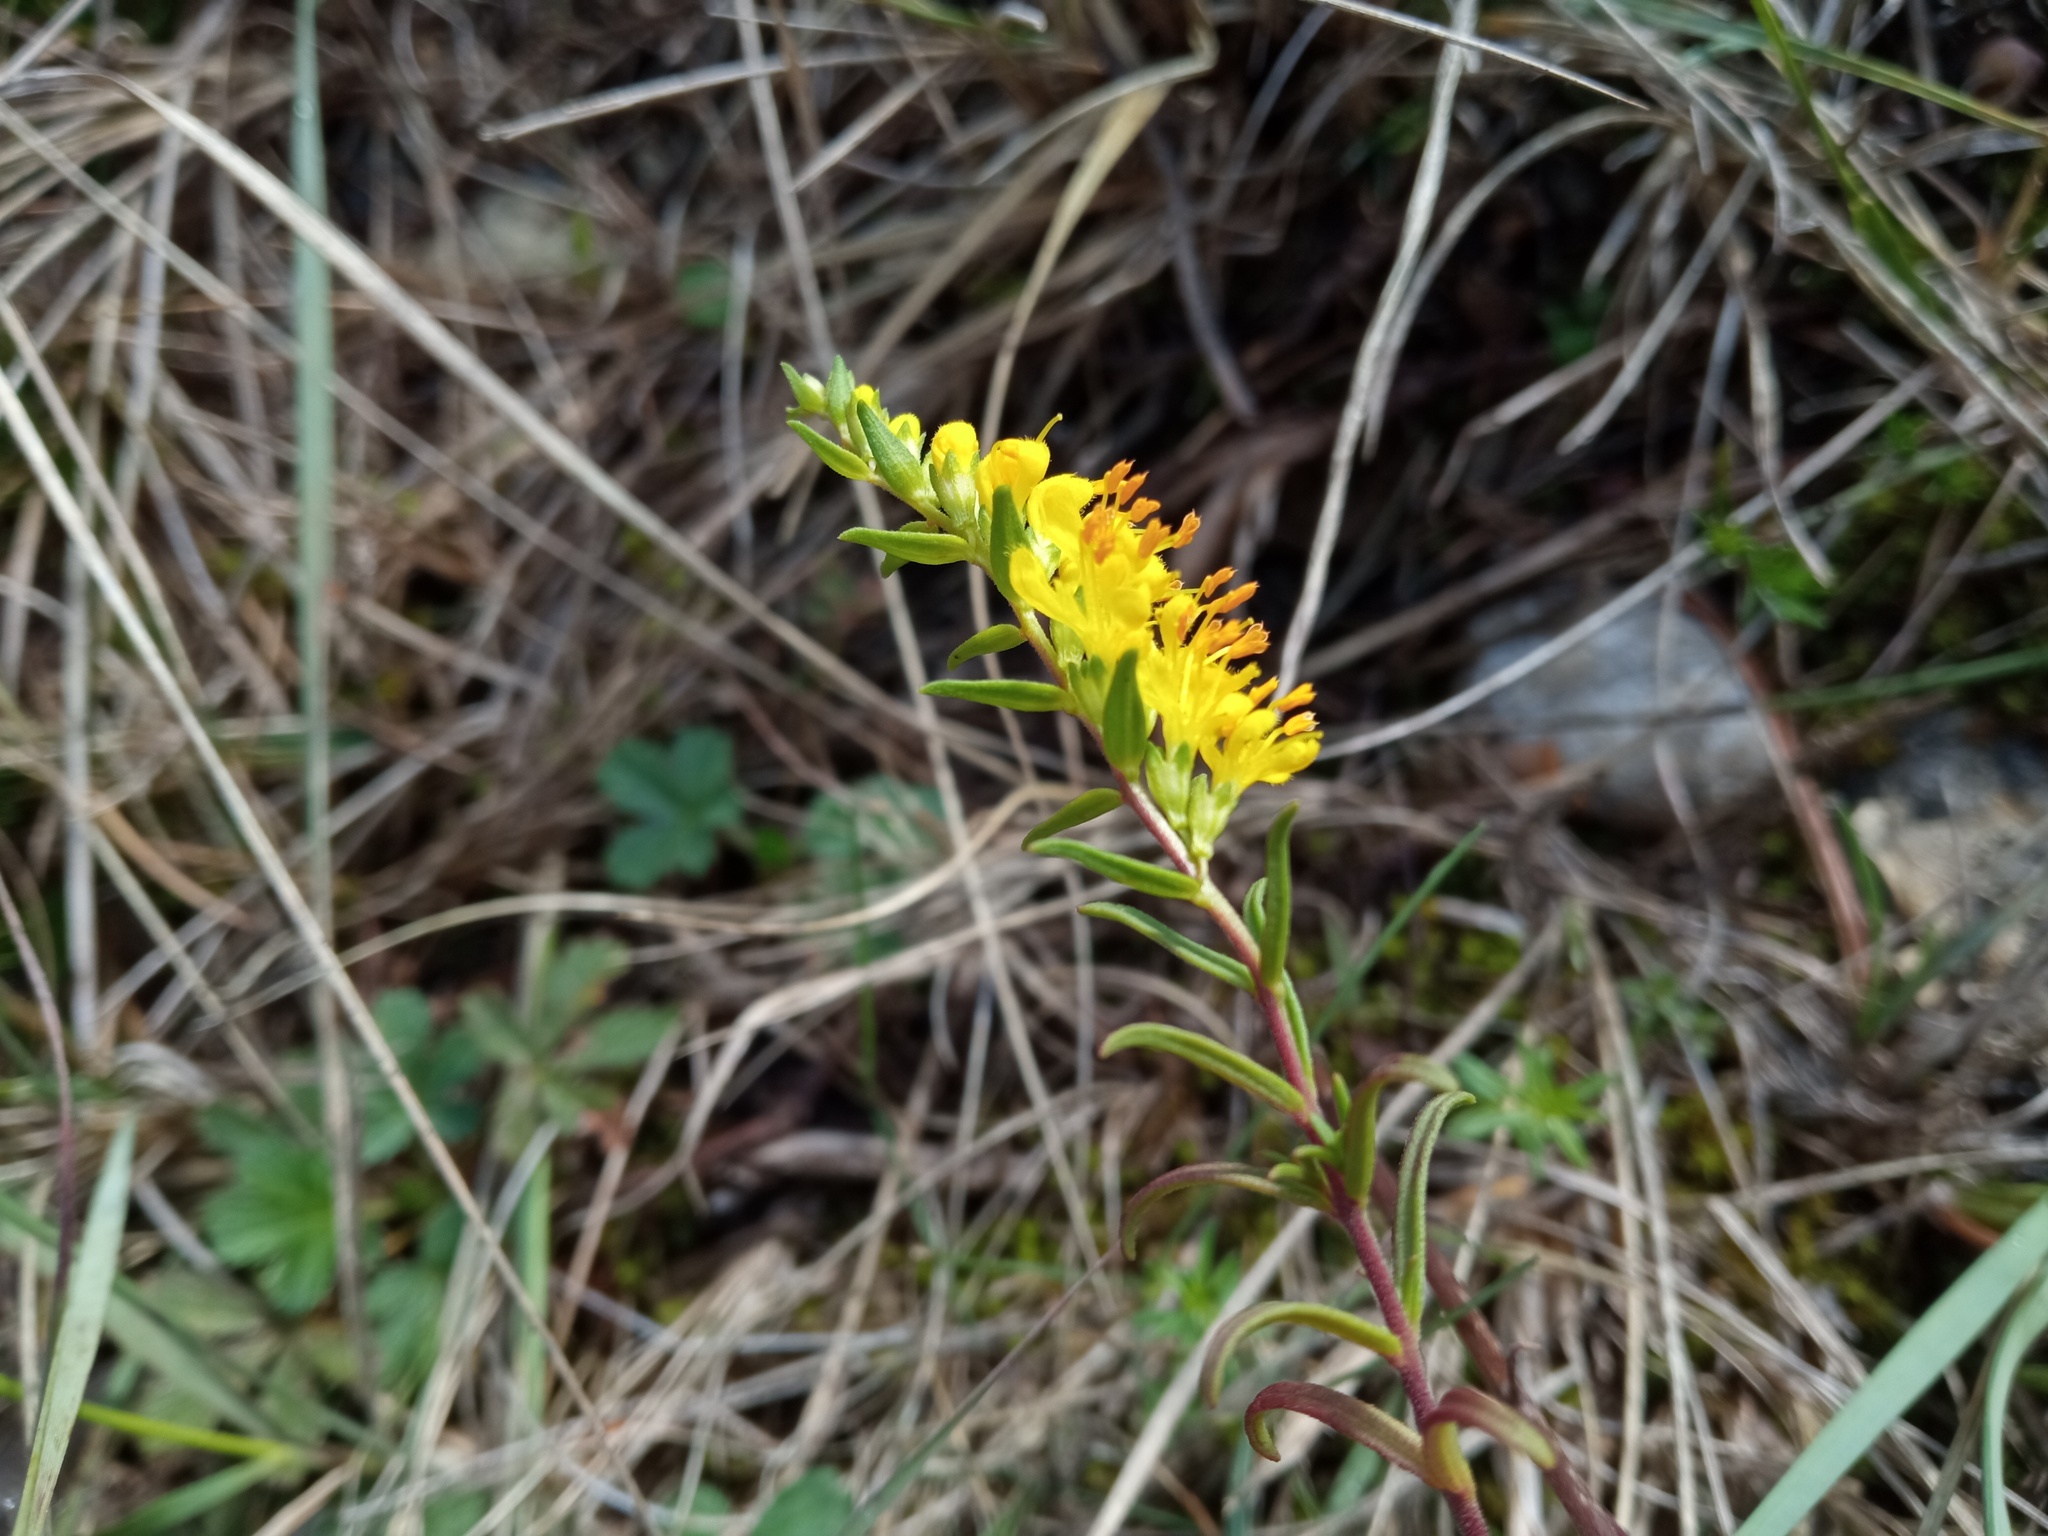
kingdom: Plantae
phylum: Tracheophyta
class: Magnoliopsida
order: Lamiales
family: Orobanchaceae
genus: Odontites
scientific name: Odontites luteus
